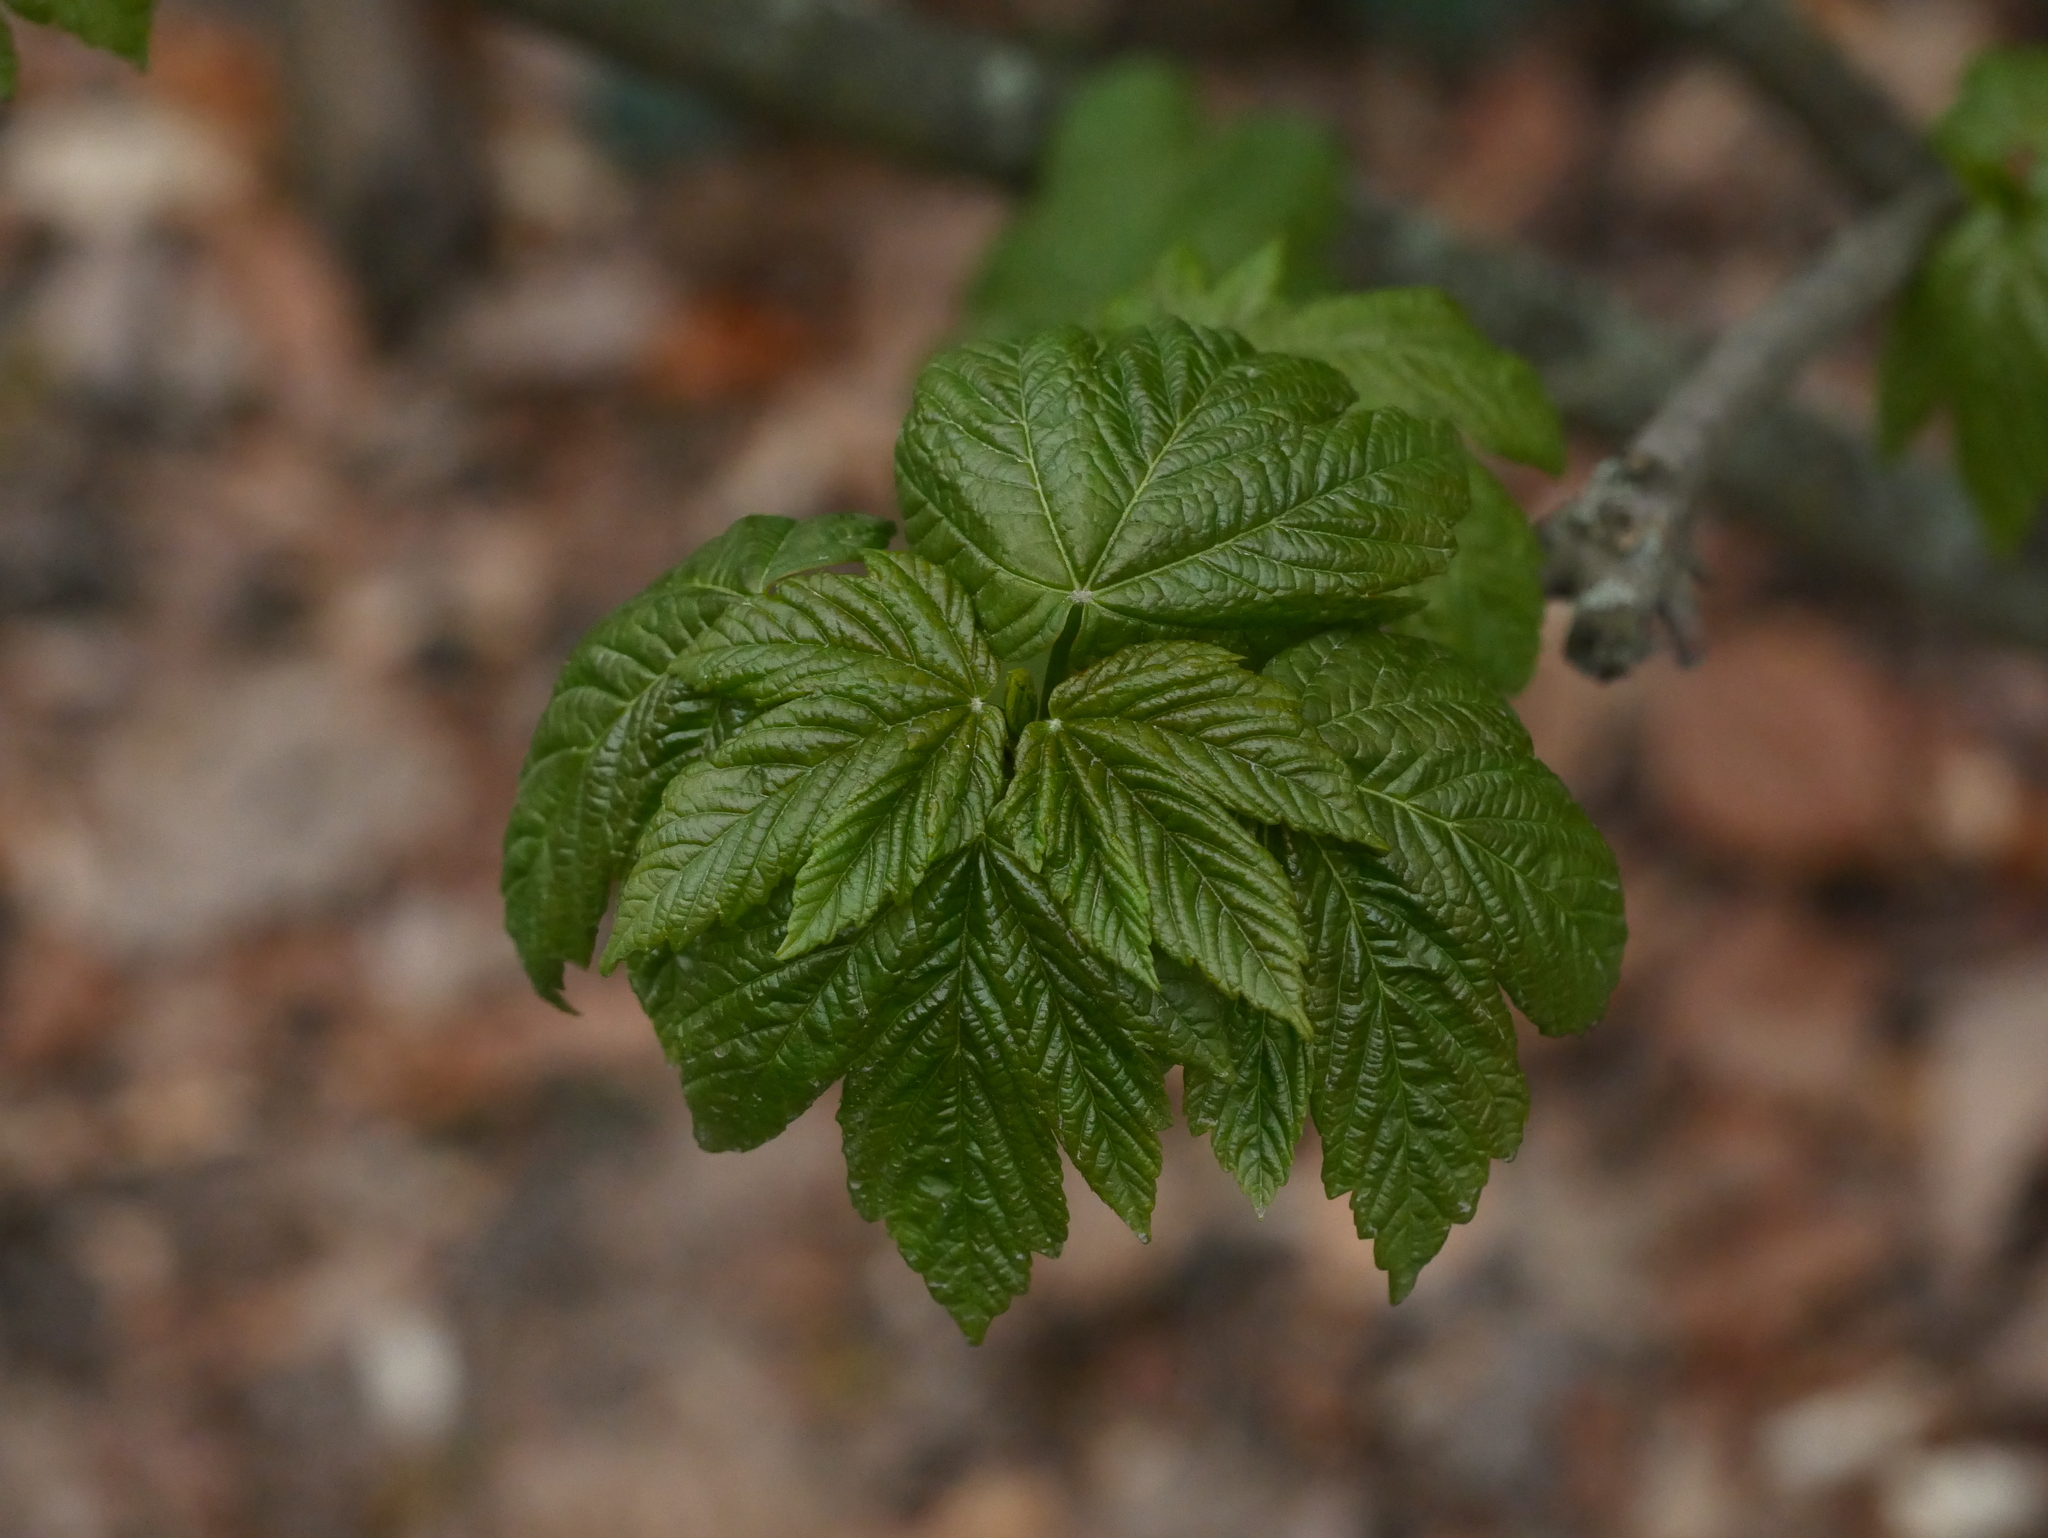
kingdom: Plantae
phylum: Tracheophyta
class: Magnoliopsida
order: Sapindales
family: Sapindaceae
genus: Acer
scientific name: Acer pseudoplatanus
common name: Sycamore
